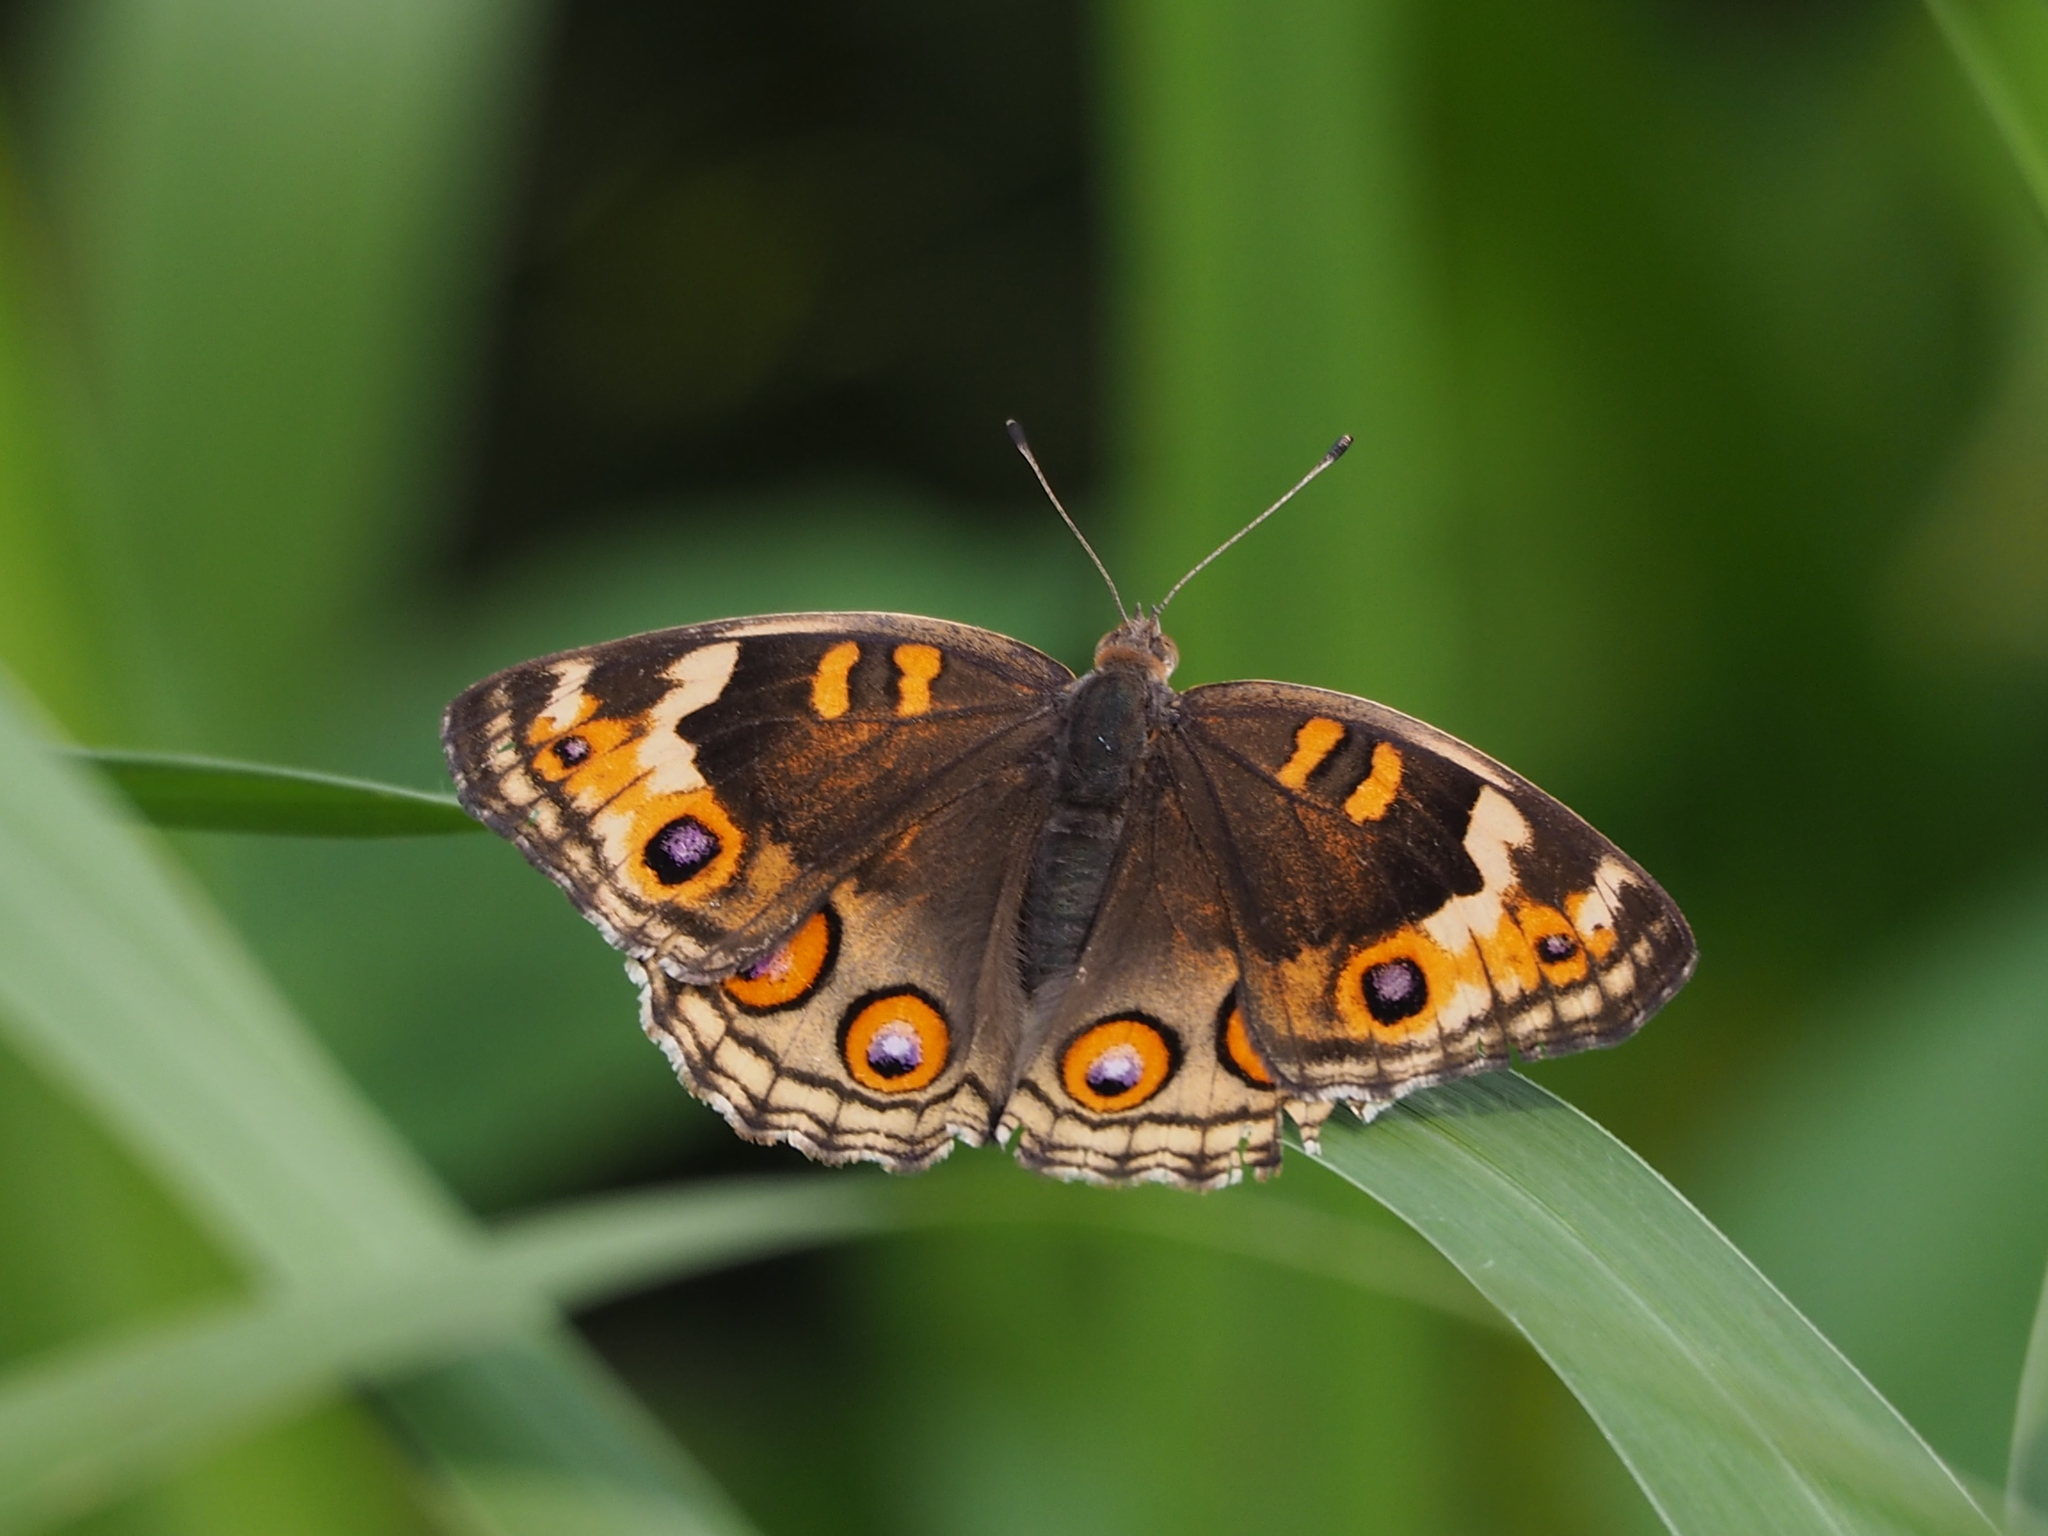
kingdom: Animalia
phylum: Arthropoda
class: Insecta
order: Lepidoptera
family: Nymphalidae
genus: Junonia
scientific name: Junonia orithya
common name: Blue pansy
